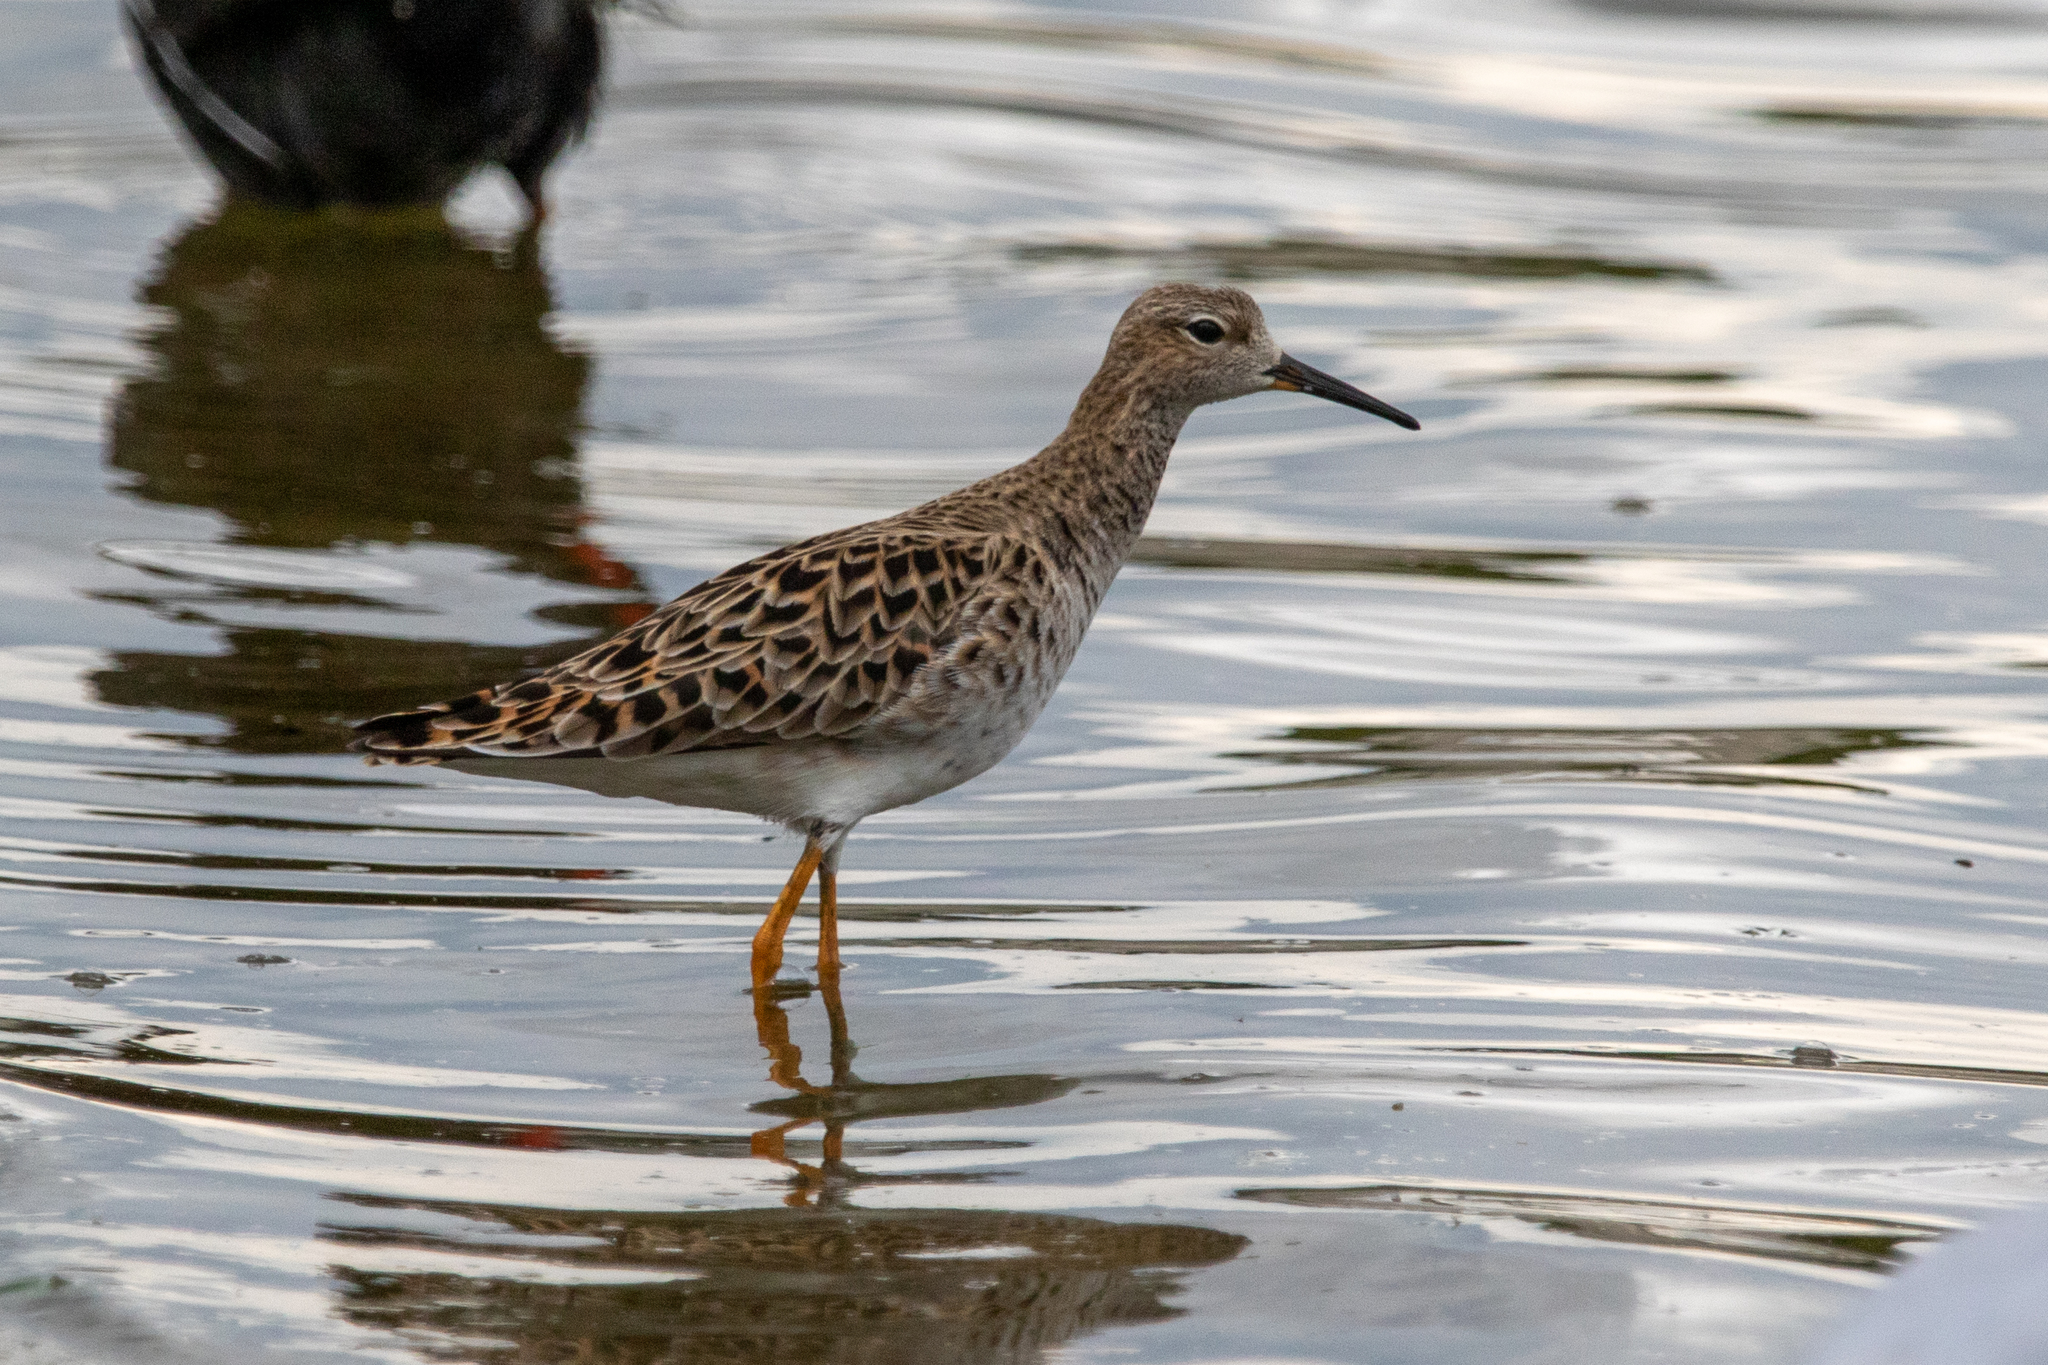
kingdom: Animalia
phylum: Chordata
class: Aves
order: Charadriiformes
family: Scolopacidae
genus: Calidris
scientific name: Calidris pugnax
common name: Ruff
